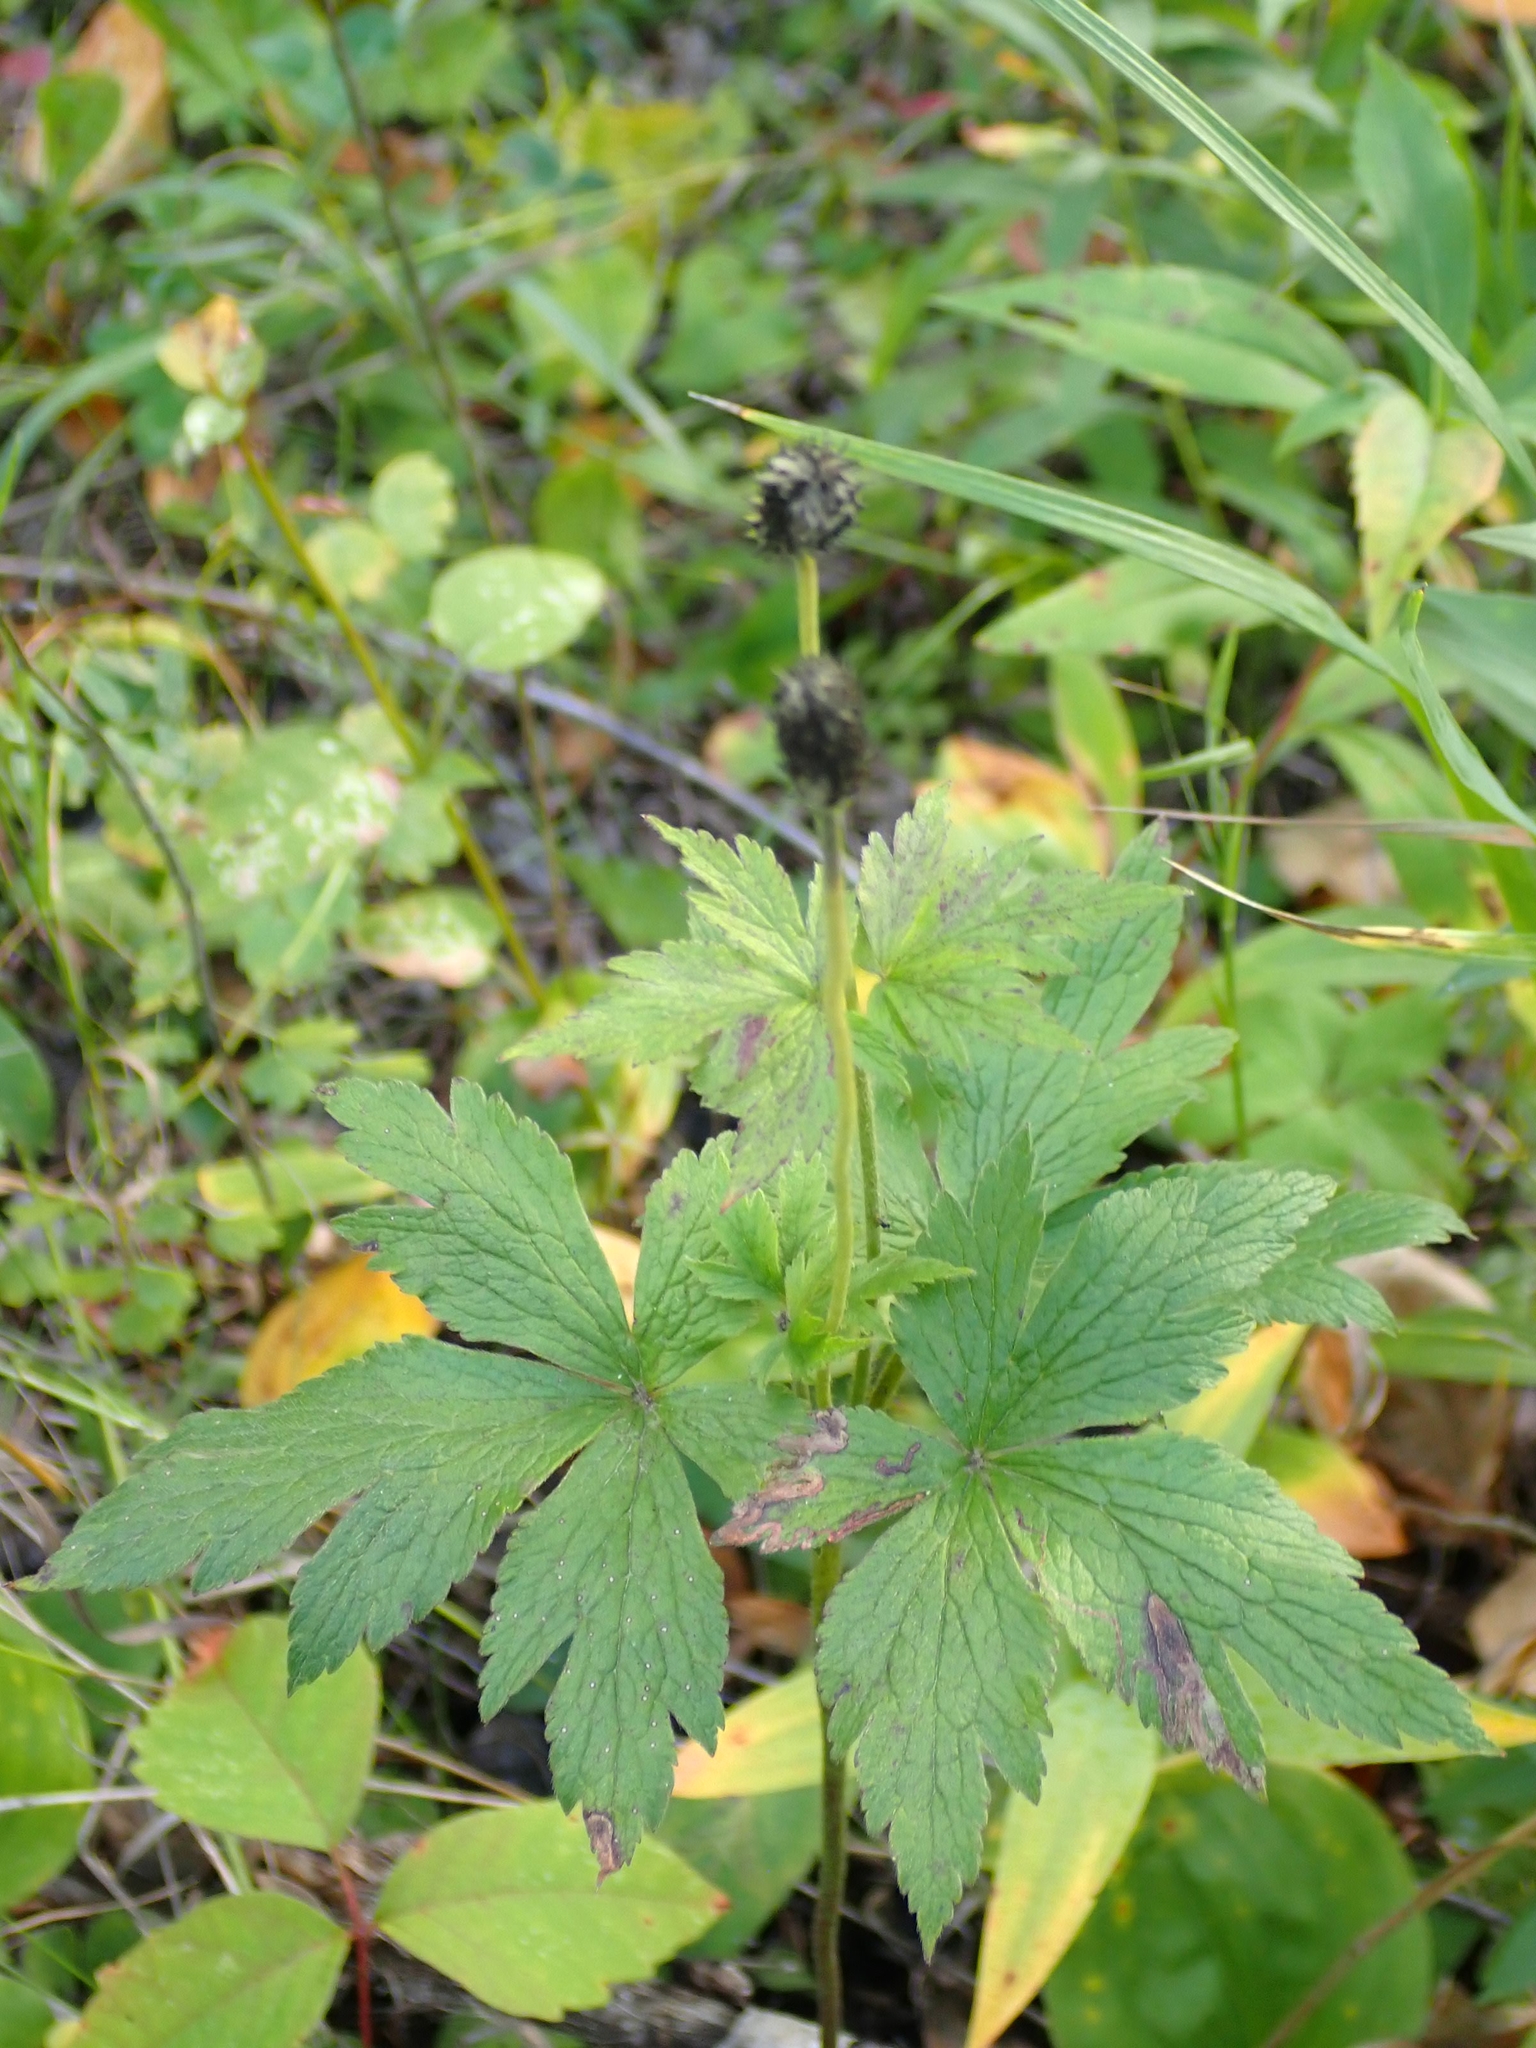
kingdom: Plantae
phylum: Tracheophyta
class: Magnoliopsida
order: Ranunculales
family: Ranunculaceae
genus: Anemone
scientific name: Anemone virginiana
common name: Tall anemone
